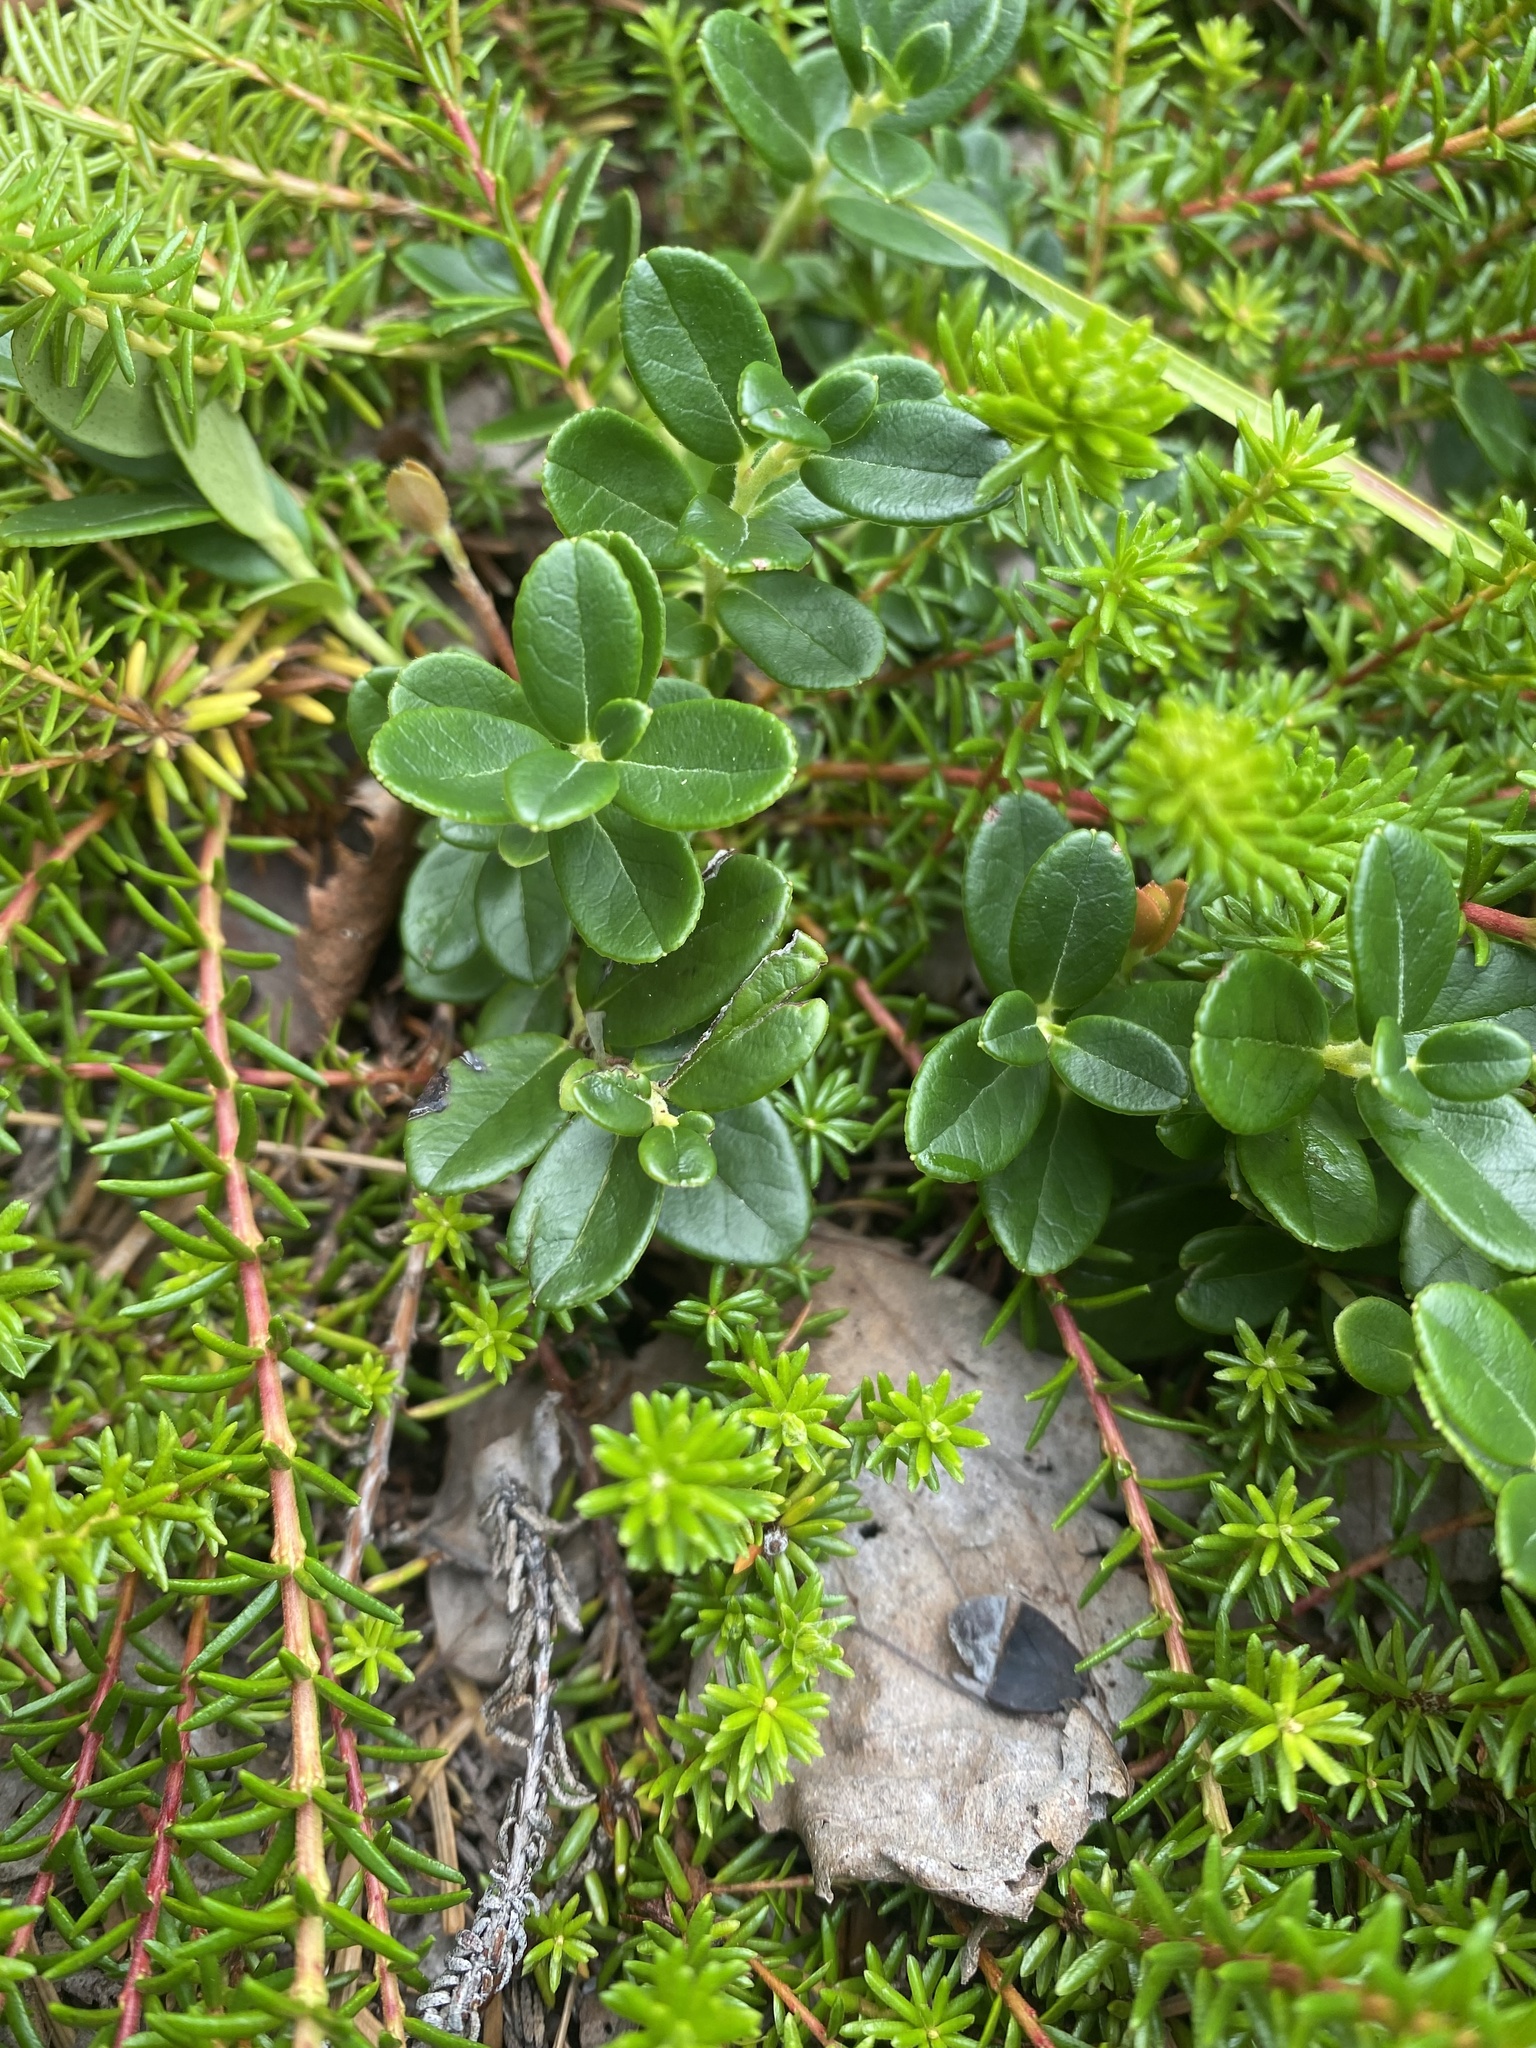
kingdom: Plantae
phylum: Tracheophyta
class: Magnoliopsida
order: Ericales
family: Ericaceae
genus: Vaccinium
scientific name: Vaccinium vitis-idaea
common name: Cowberry
